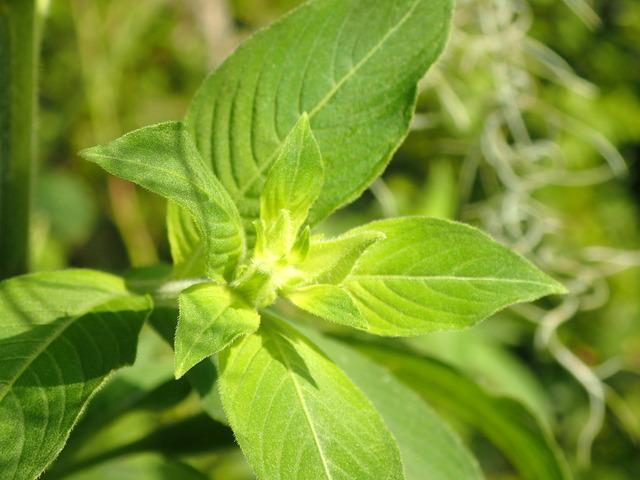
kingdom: Plantae
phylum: Tracheophyta
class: Magnoliopsida
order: Myrtales
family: Onagraceae
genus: Ludwigia
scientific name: Ludwigia peruviana
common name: Peruvian primrose-willow
